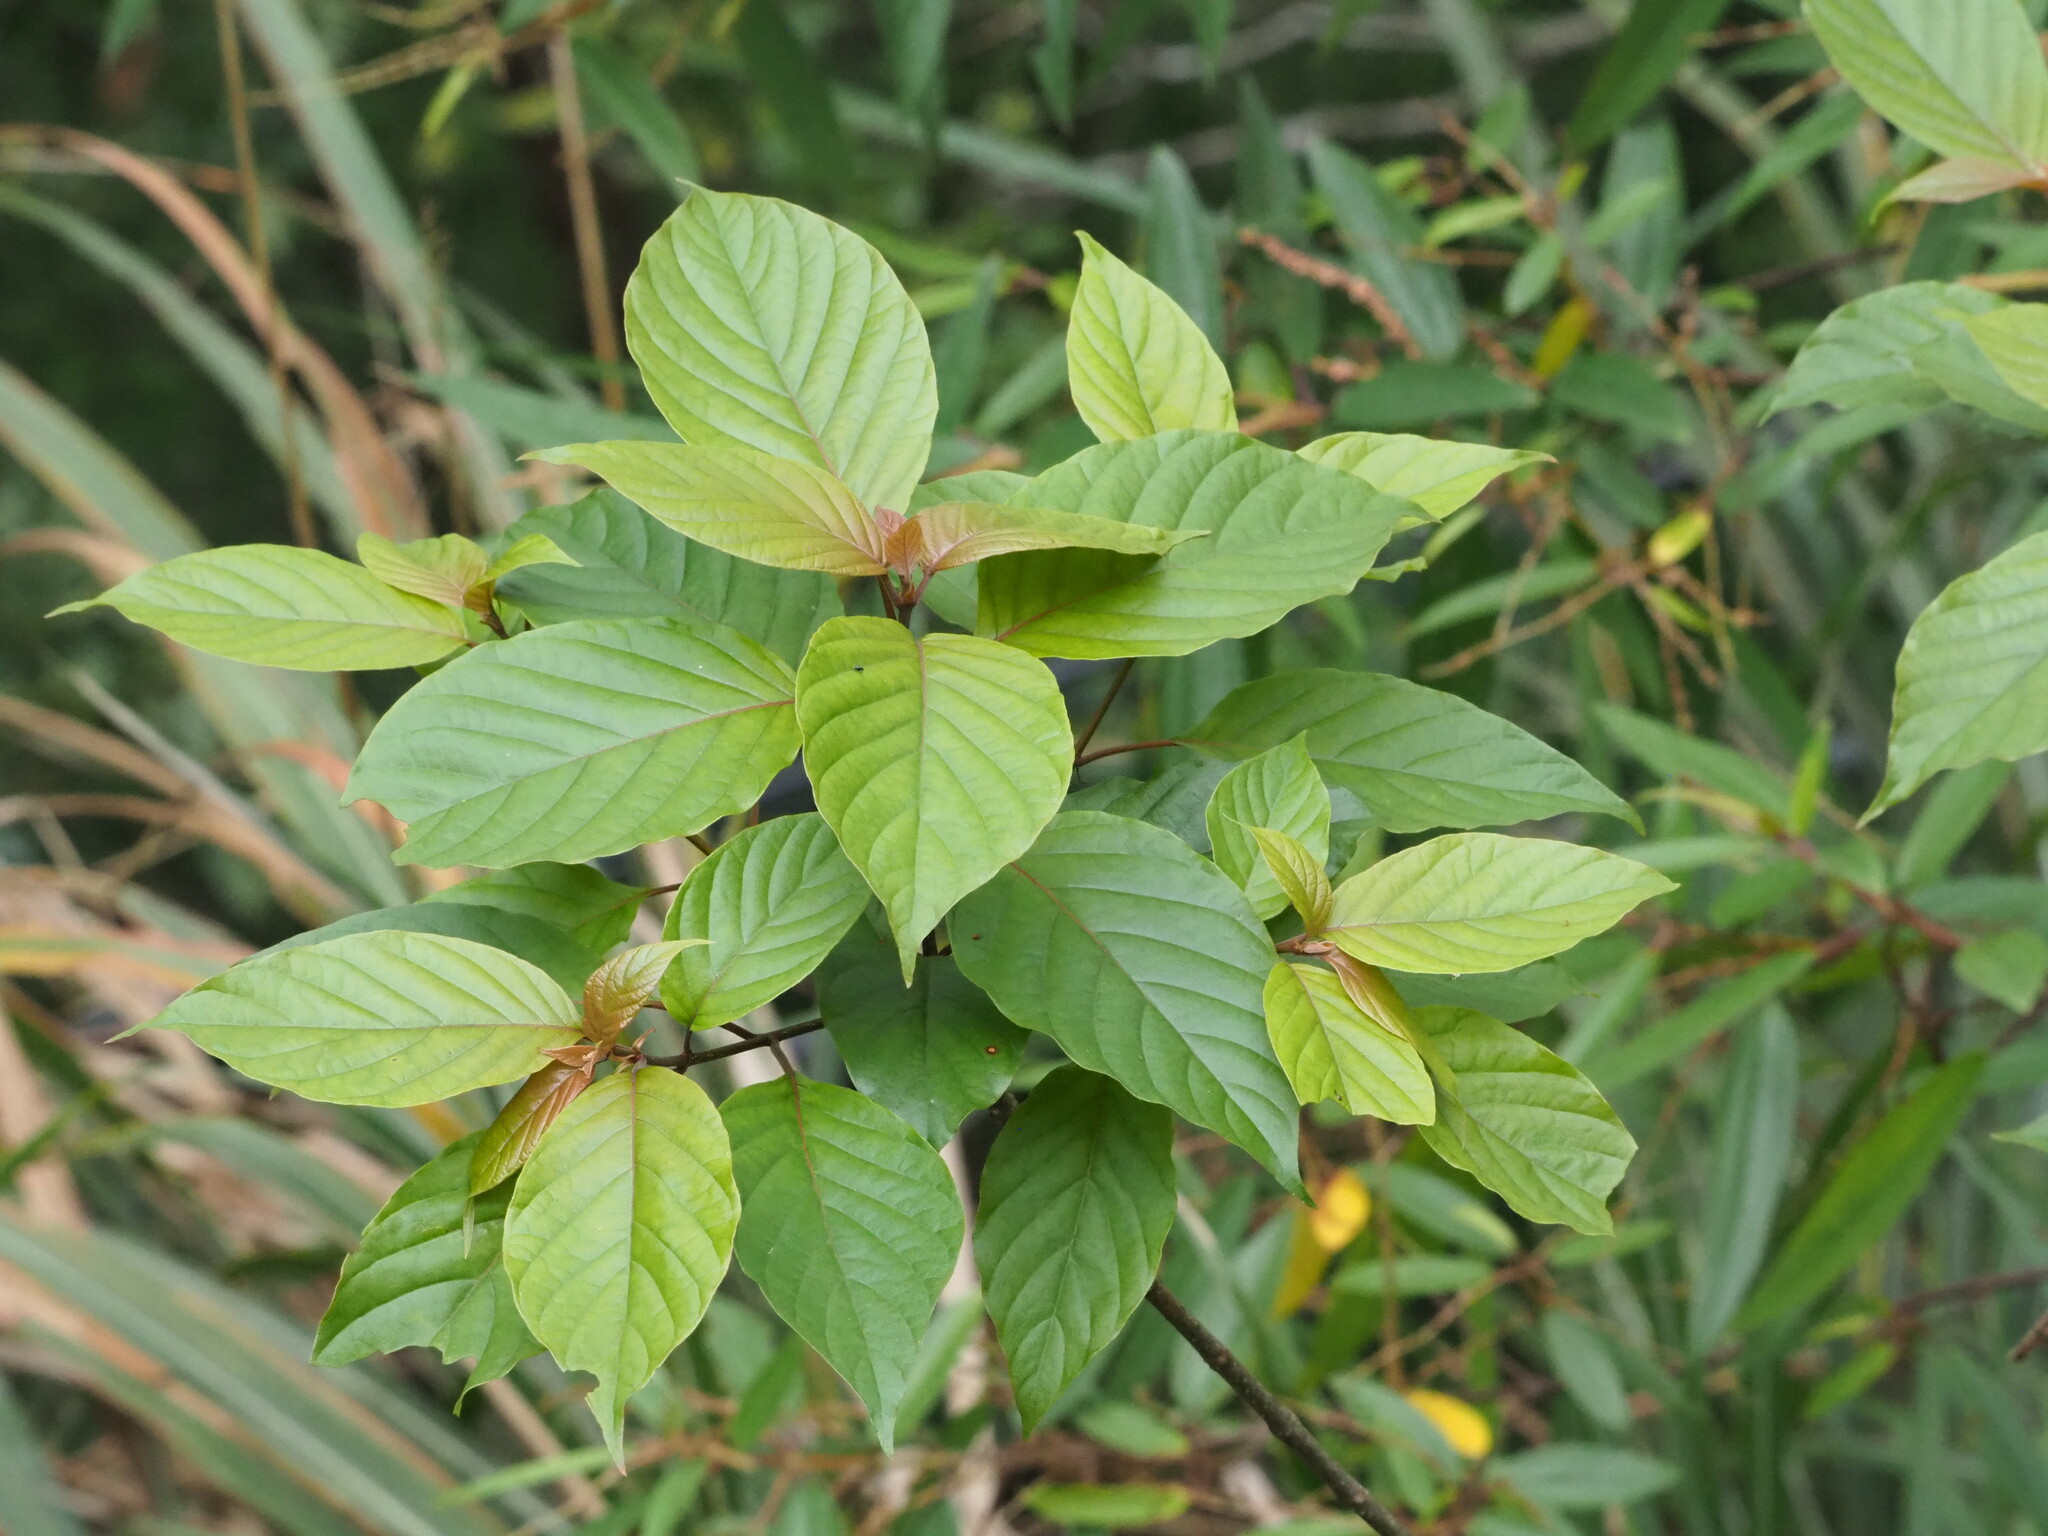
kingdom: Plantae
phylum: Tracheophyta
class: Magnoliopsida
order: Gentianales
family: Rubiaceae
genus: Adina
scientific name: Adina racemosa
